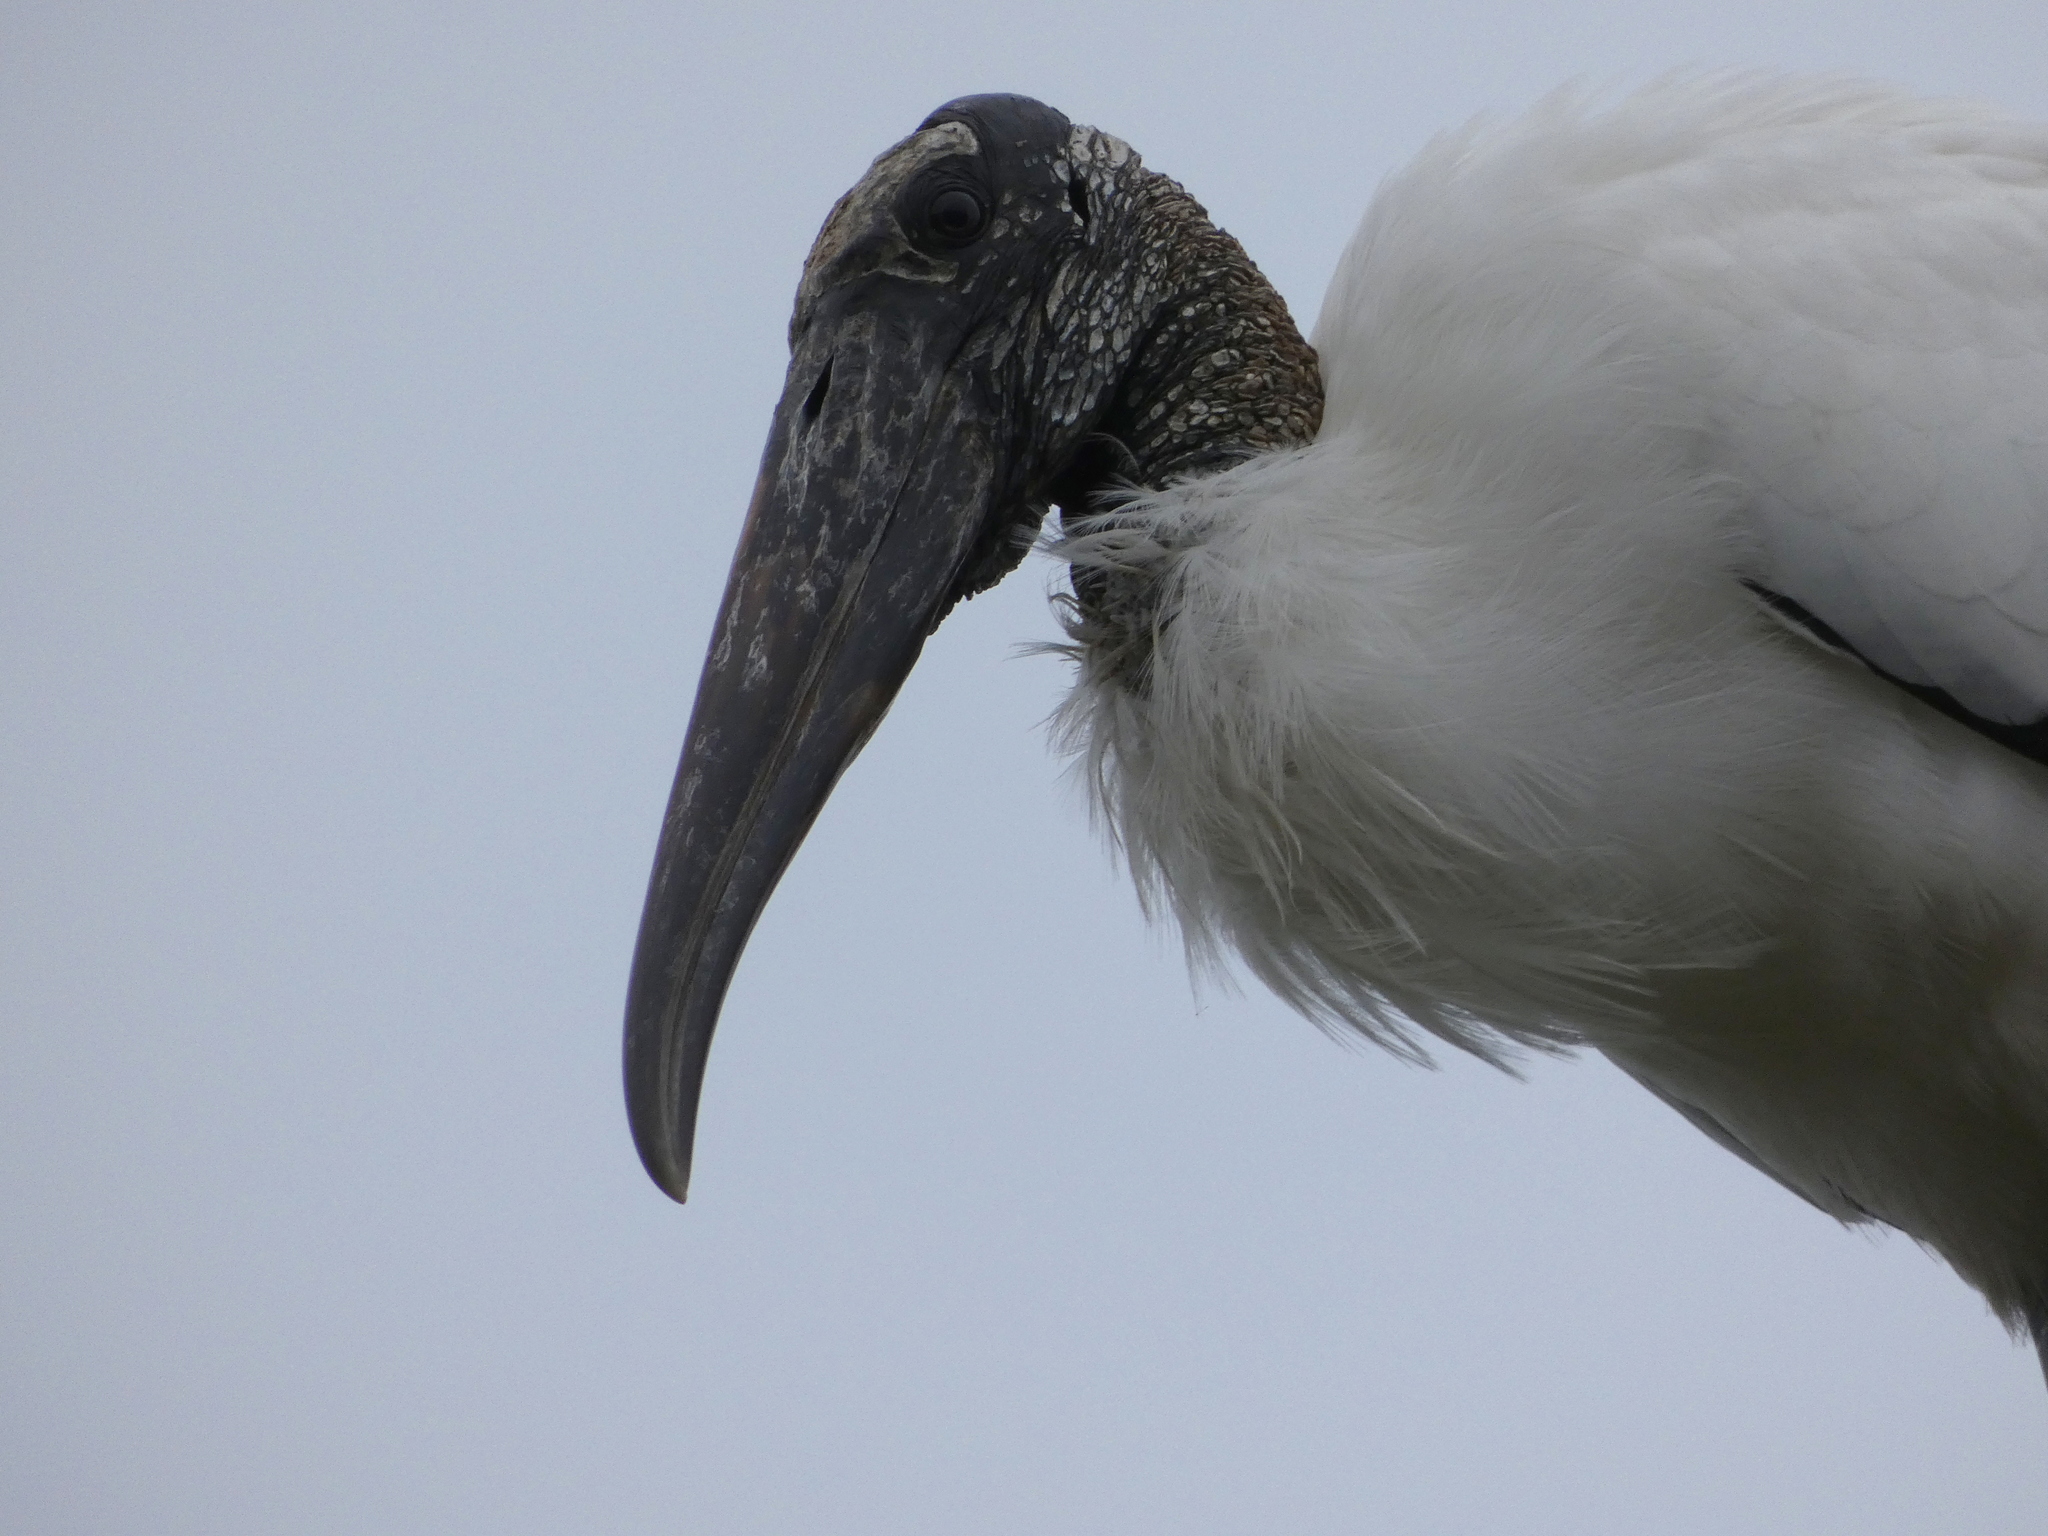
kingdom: Animalia
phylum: Chordata
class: Aves
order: Ciconiiformes
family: Ciconiidae
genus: Mycteria
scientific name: Mycteria americana
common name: Wood stork
